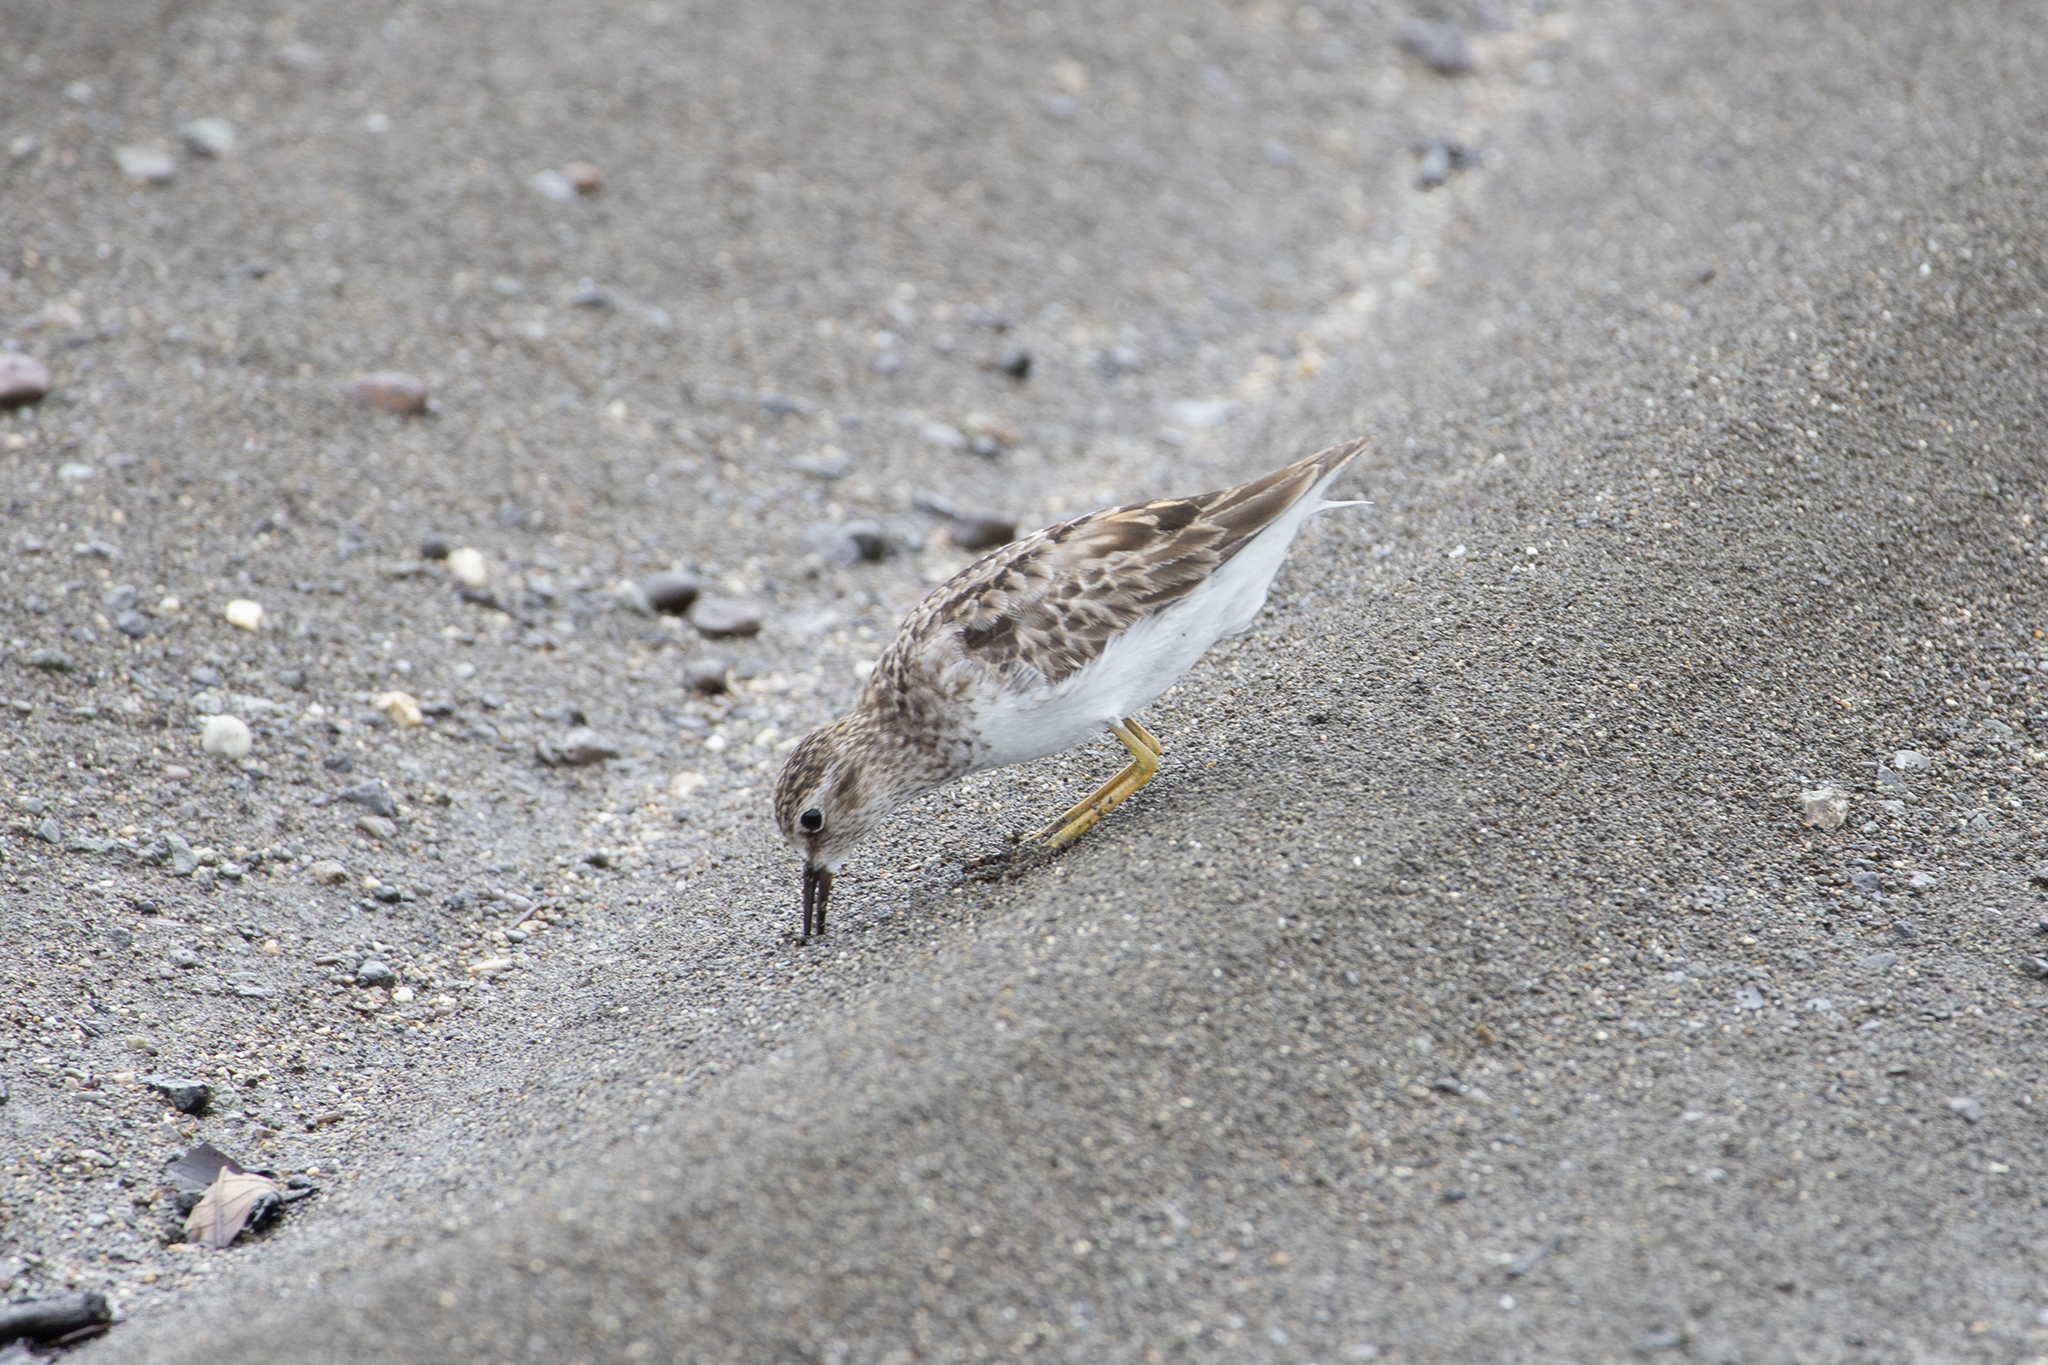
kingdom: Animalia
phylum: Chordata
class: Aves
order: Charadriiformes
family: Scolopacidae
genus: Calidris
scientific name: Calidris minutilla
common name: Least sandpiper
